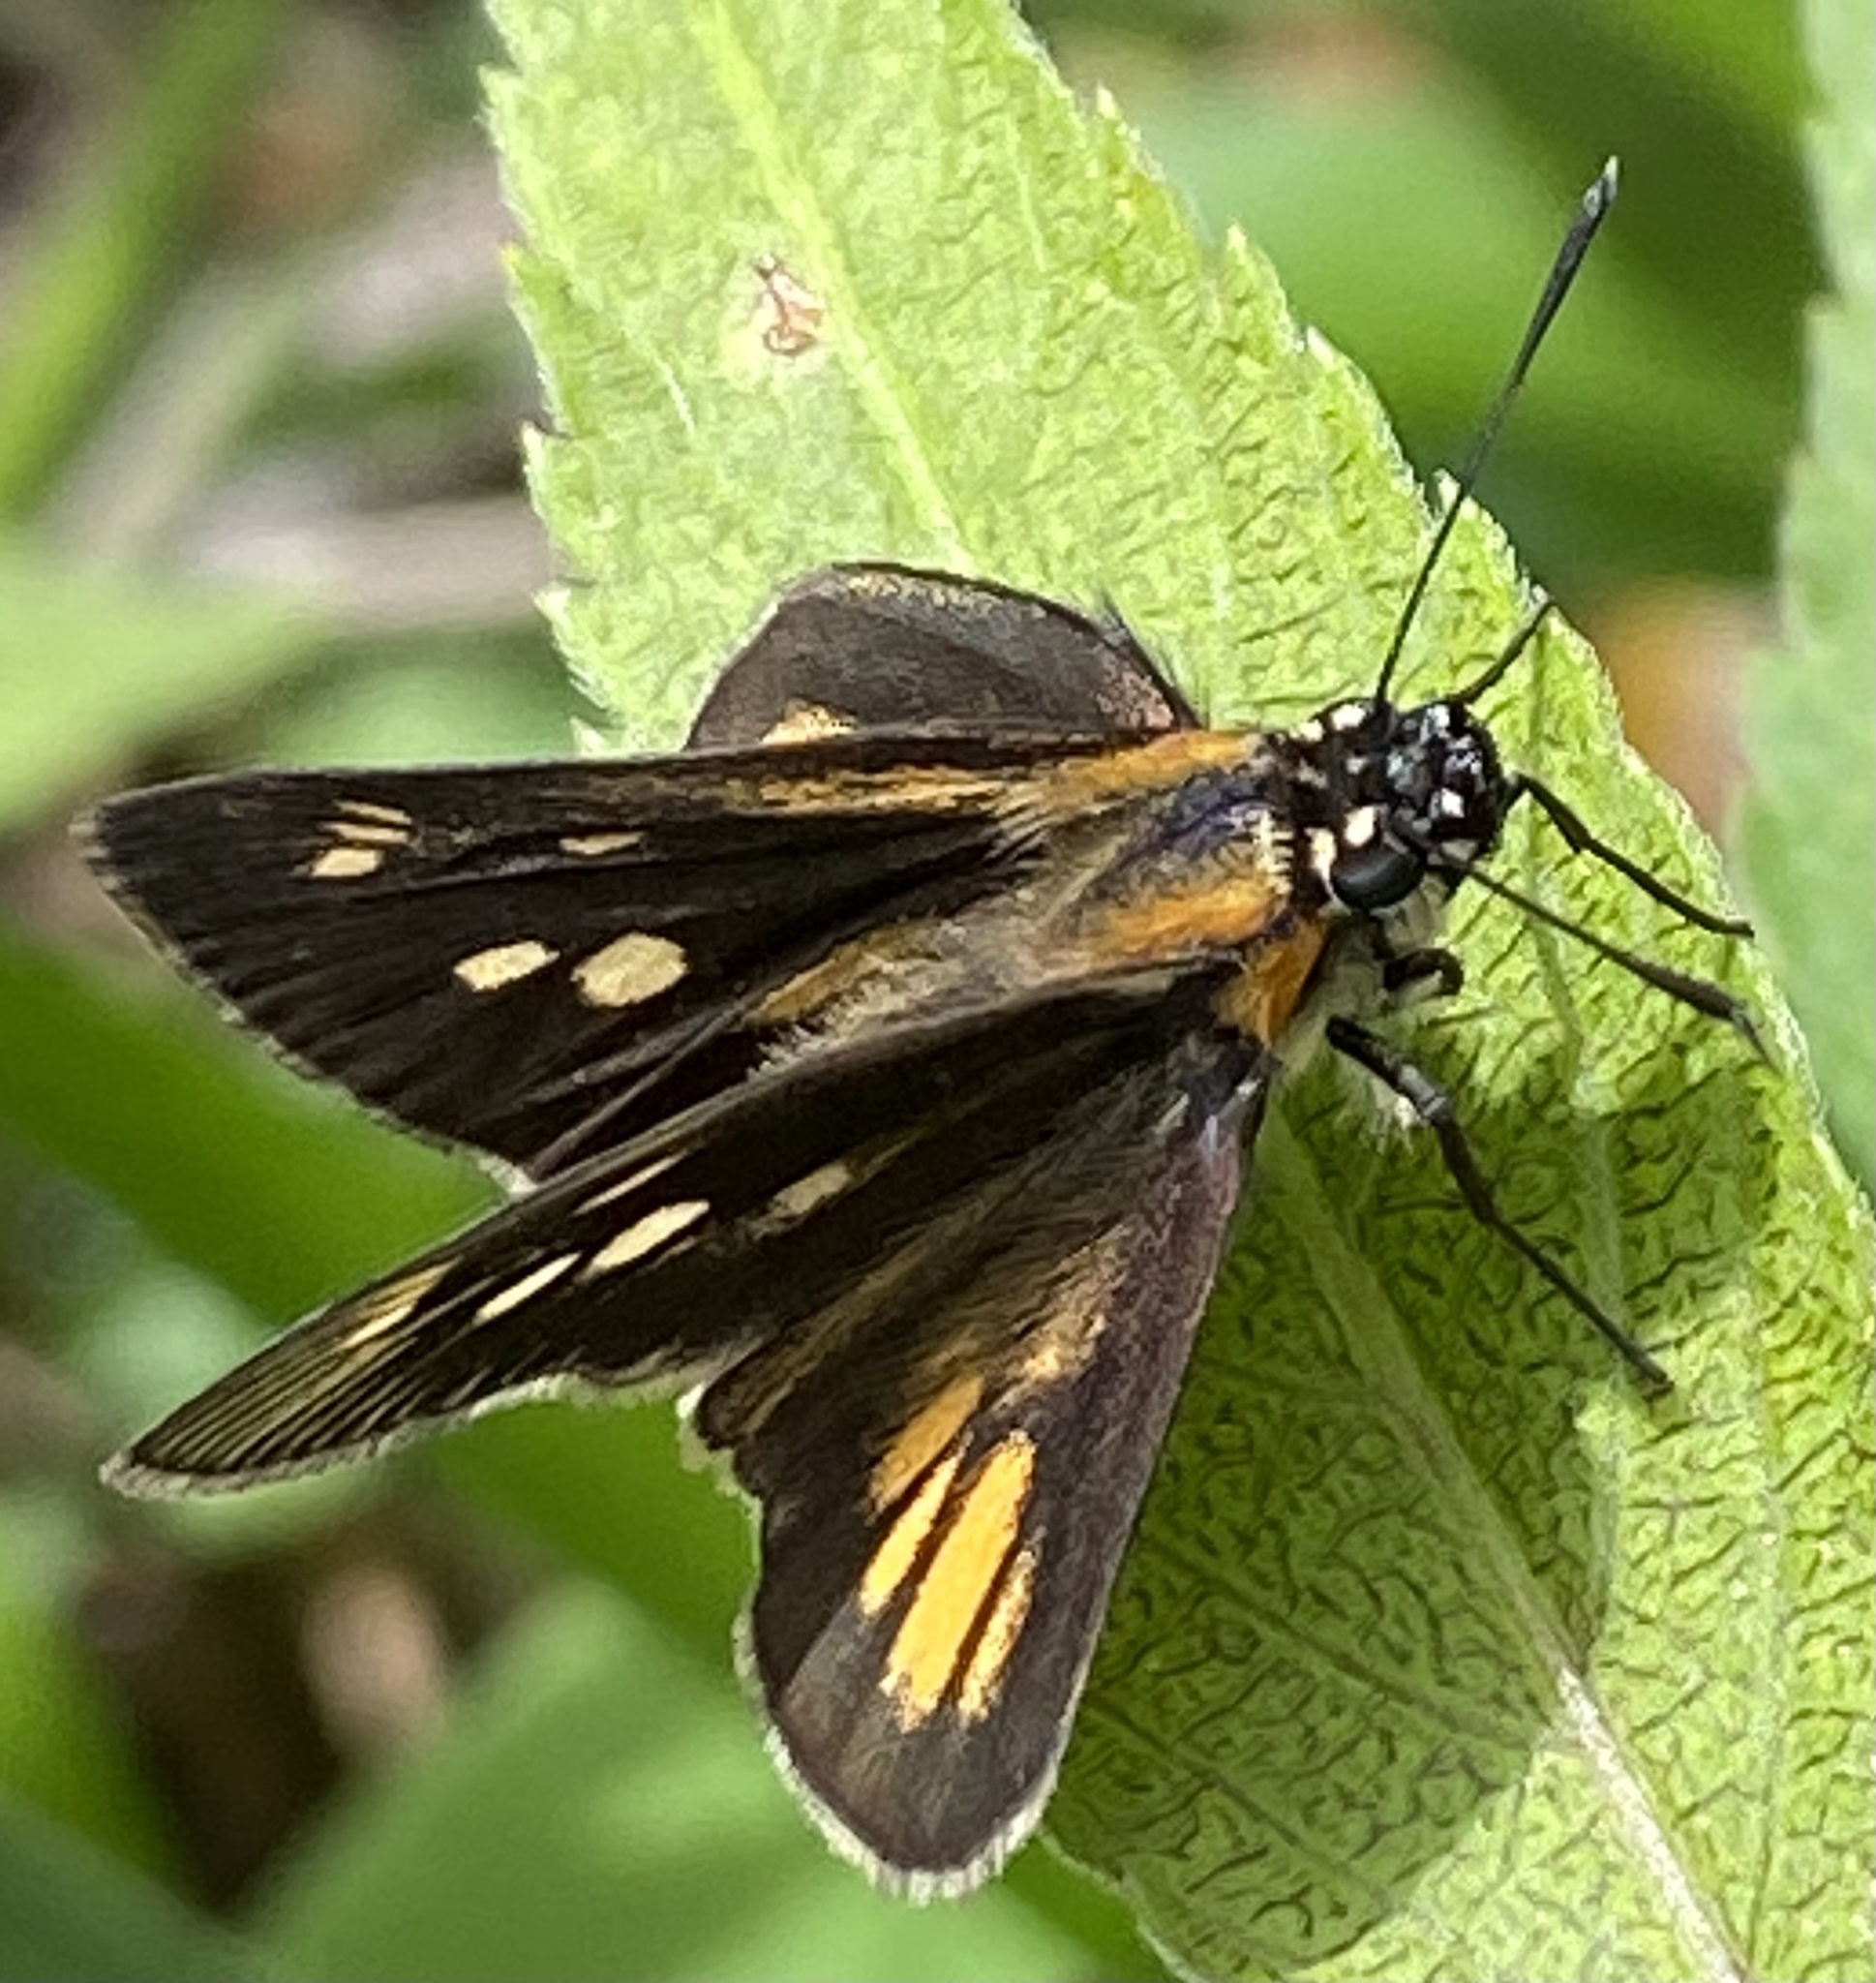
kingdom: Animalia
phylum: Arthropoda
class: Insecta
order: Lepidoptera
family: Hesperiidae
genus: Vehilius
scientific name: Vehilius clavicula
